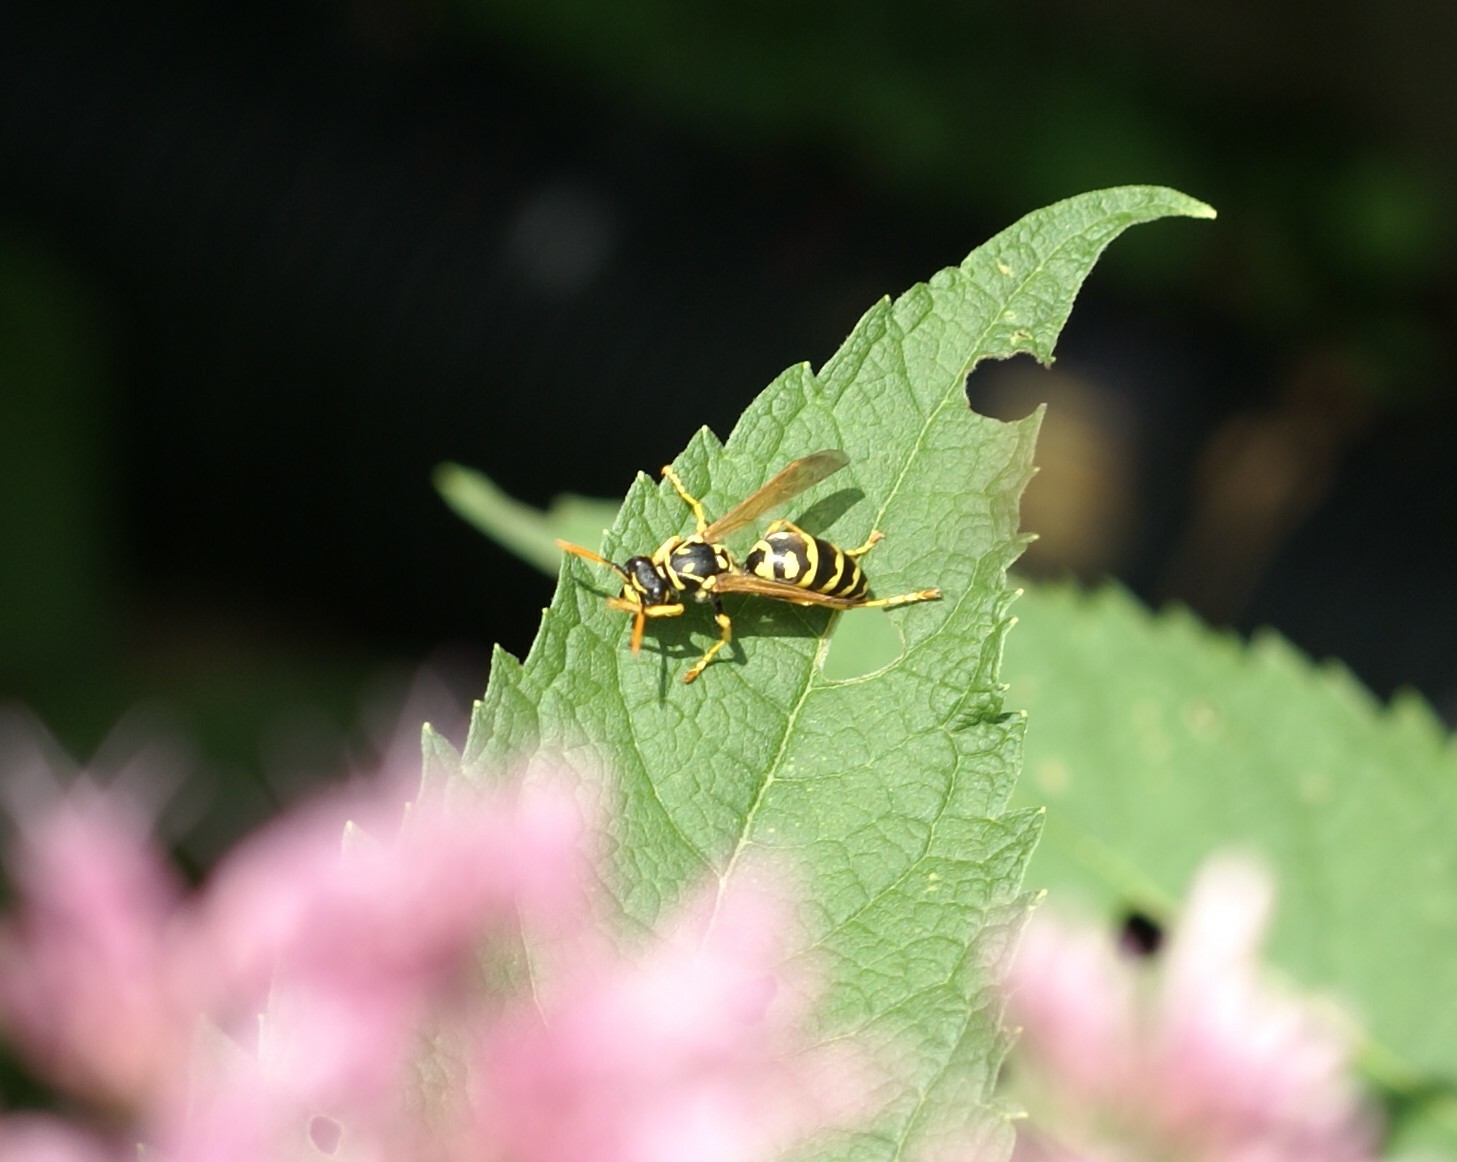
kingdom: Animalia
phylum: Arthropoda
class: Insecta
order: Hymenoptera
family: Eumenidae
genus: Polistes
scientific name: Polistes dominula
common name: Paper wasp
